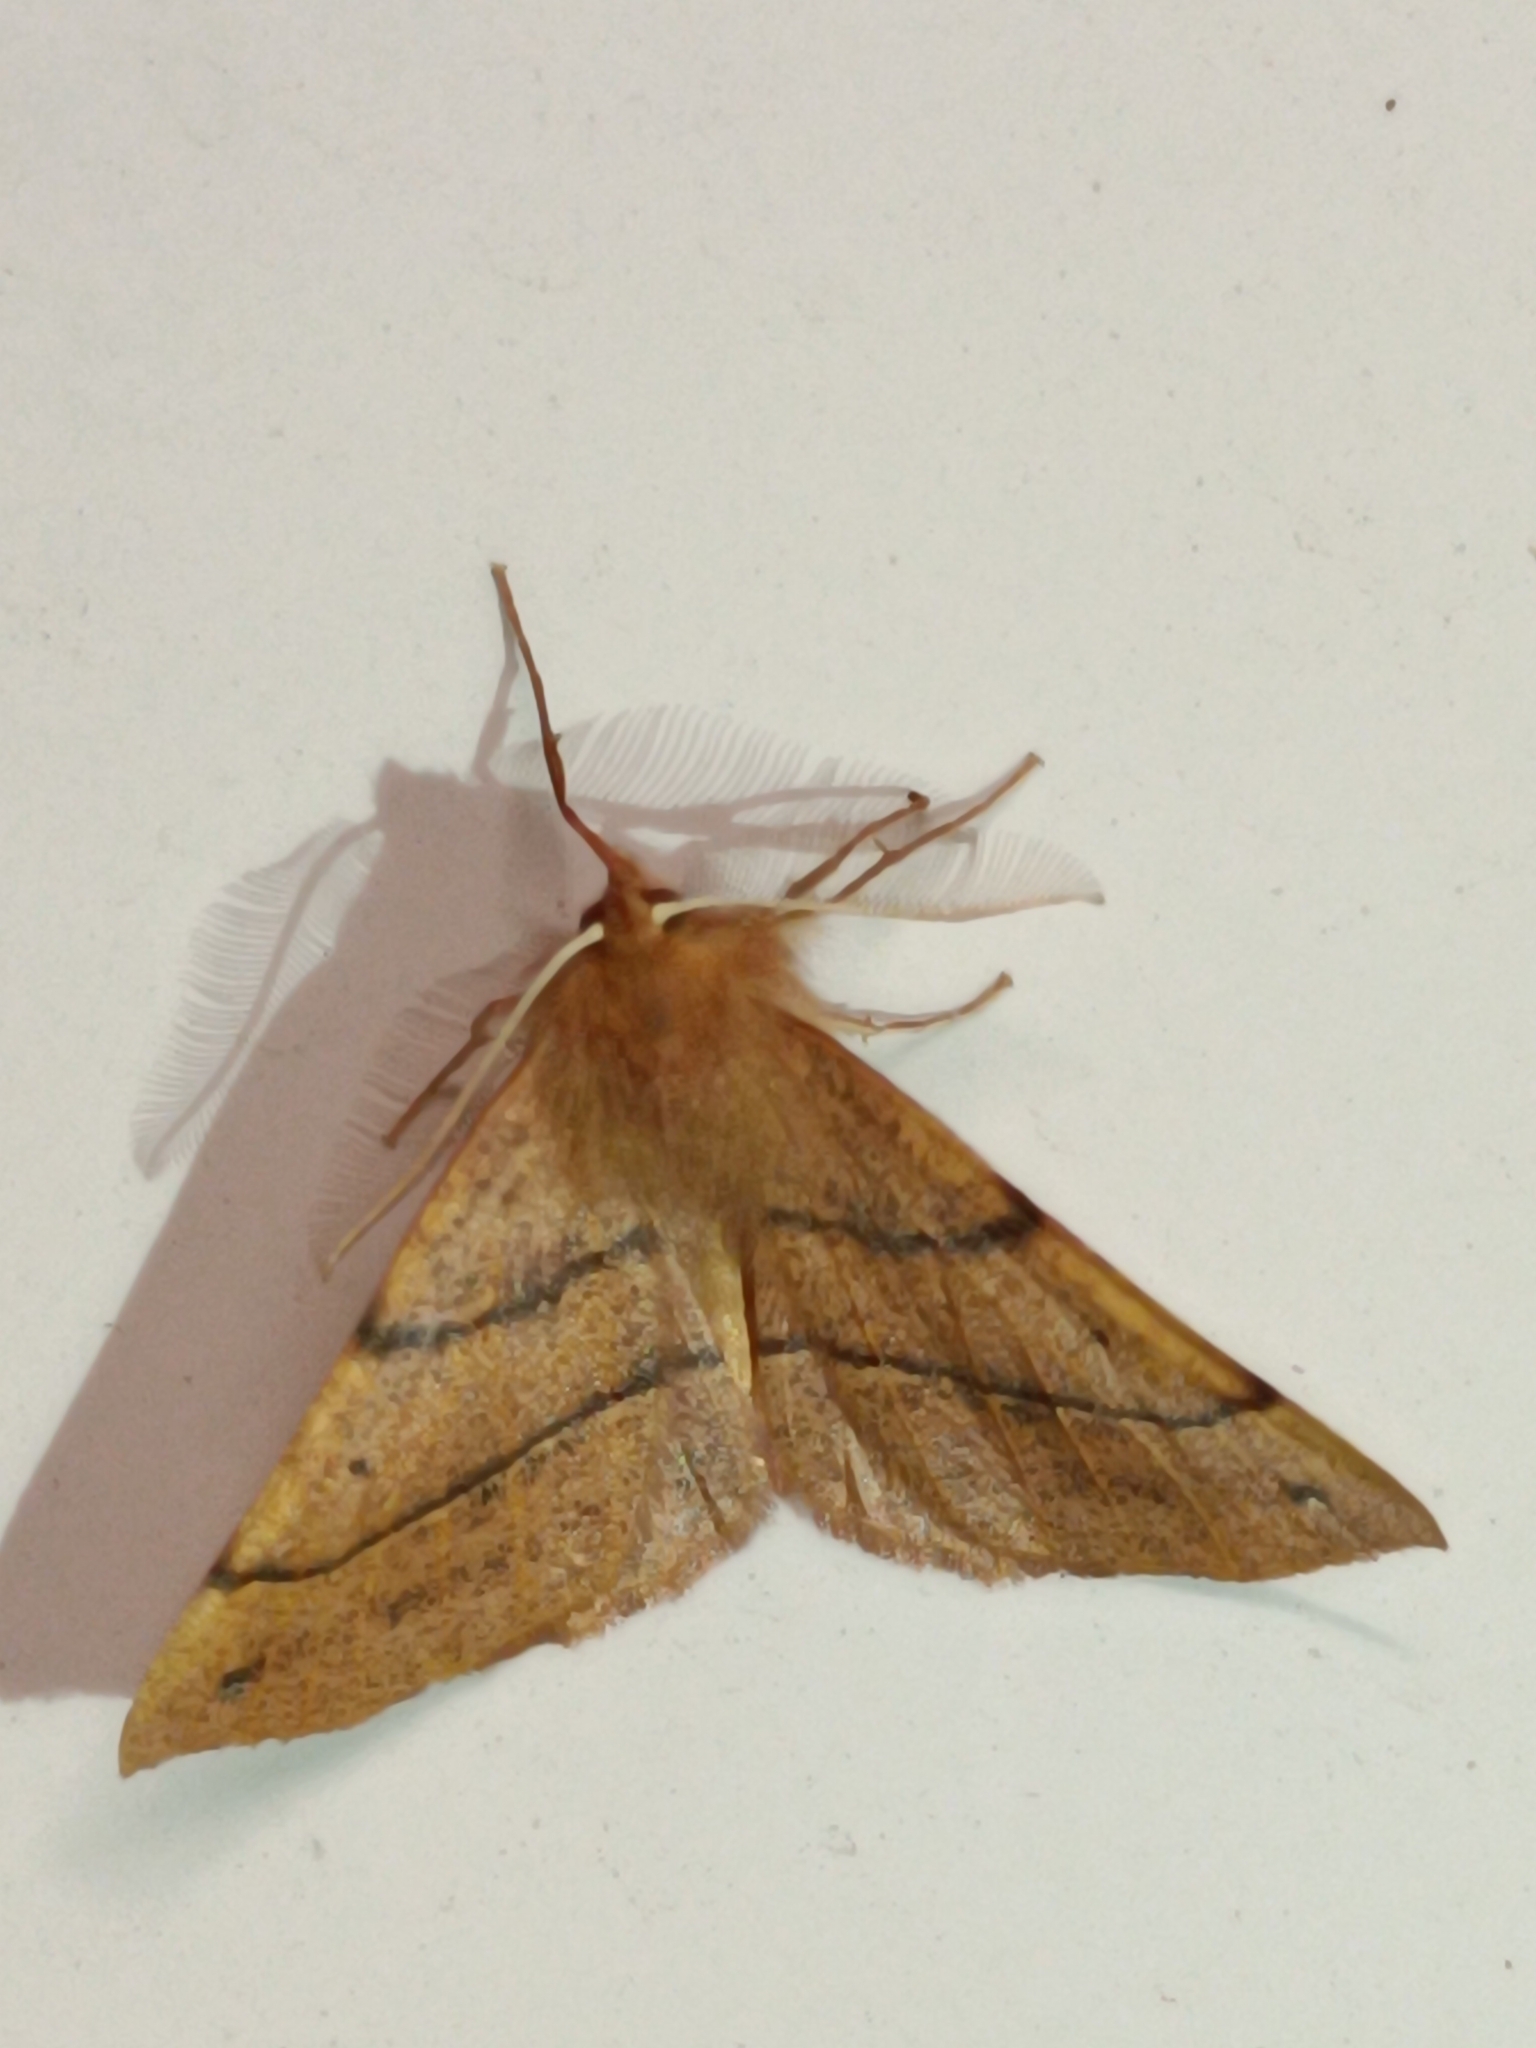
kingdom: Animalia
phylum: Arthropoda
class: Insecta
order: Lepidoptera
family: Geometridae
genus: Colotois
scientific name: Colotois pennaria
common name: Feathered thorn
